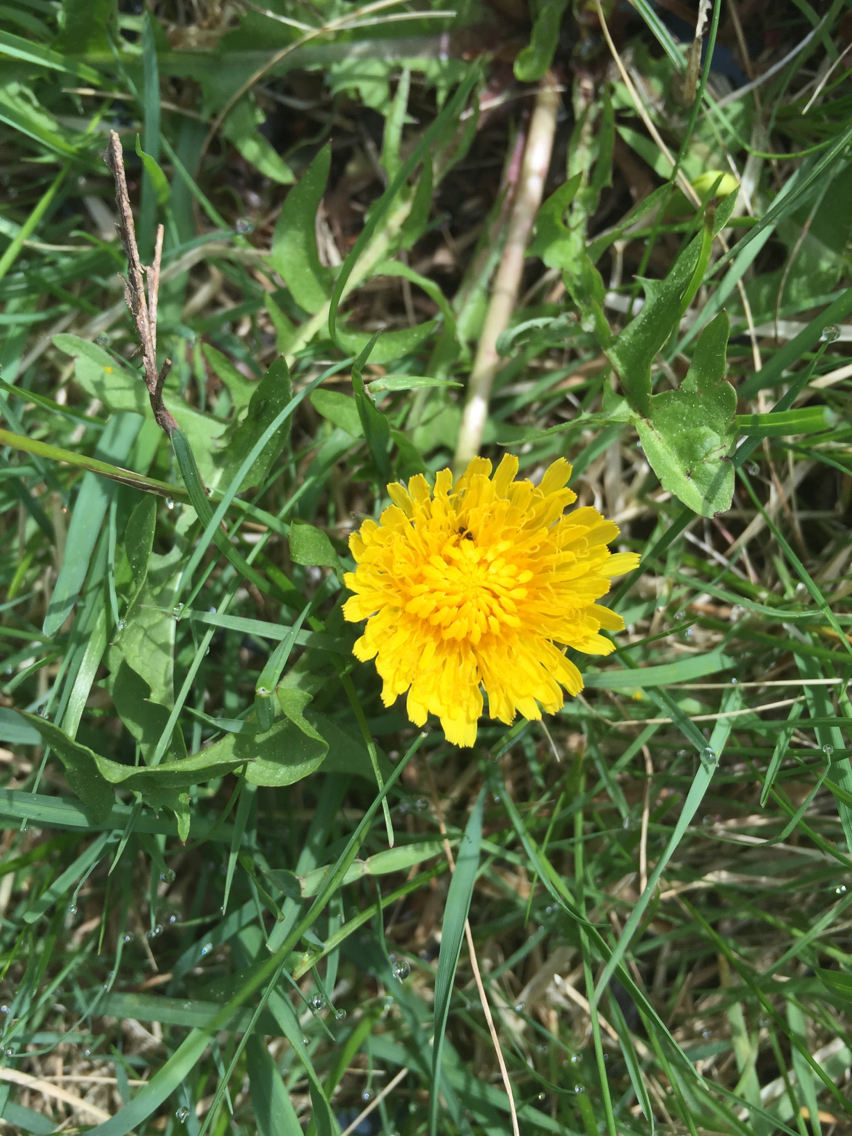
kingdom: Plantae
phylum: Tracheophyta
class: Magnoliopsida
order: Asterales
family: Asteraceae
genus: Taraxacum
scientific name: Taraxacum officinale
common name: Common dandelion
